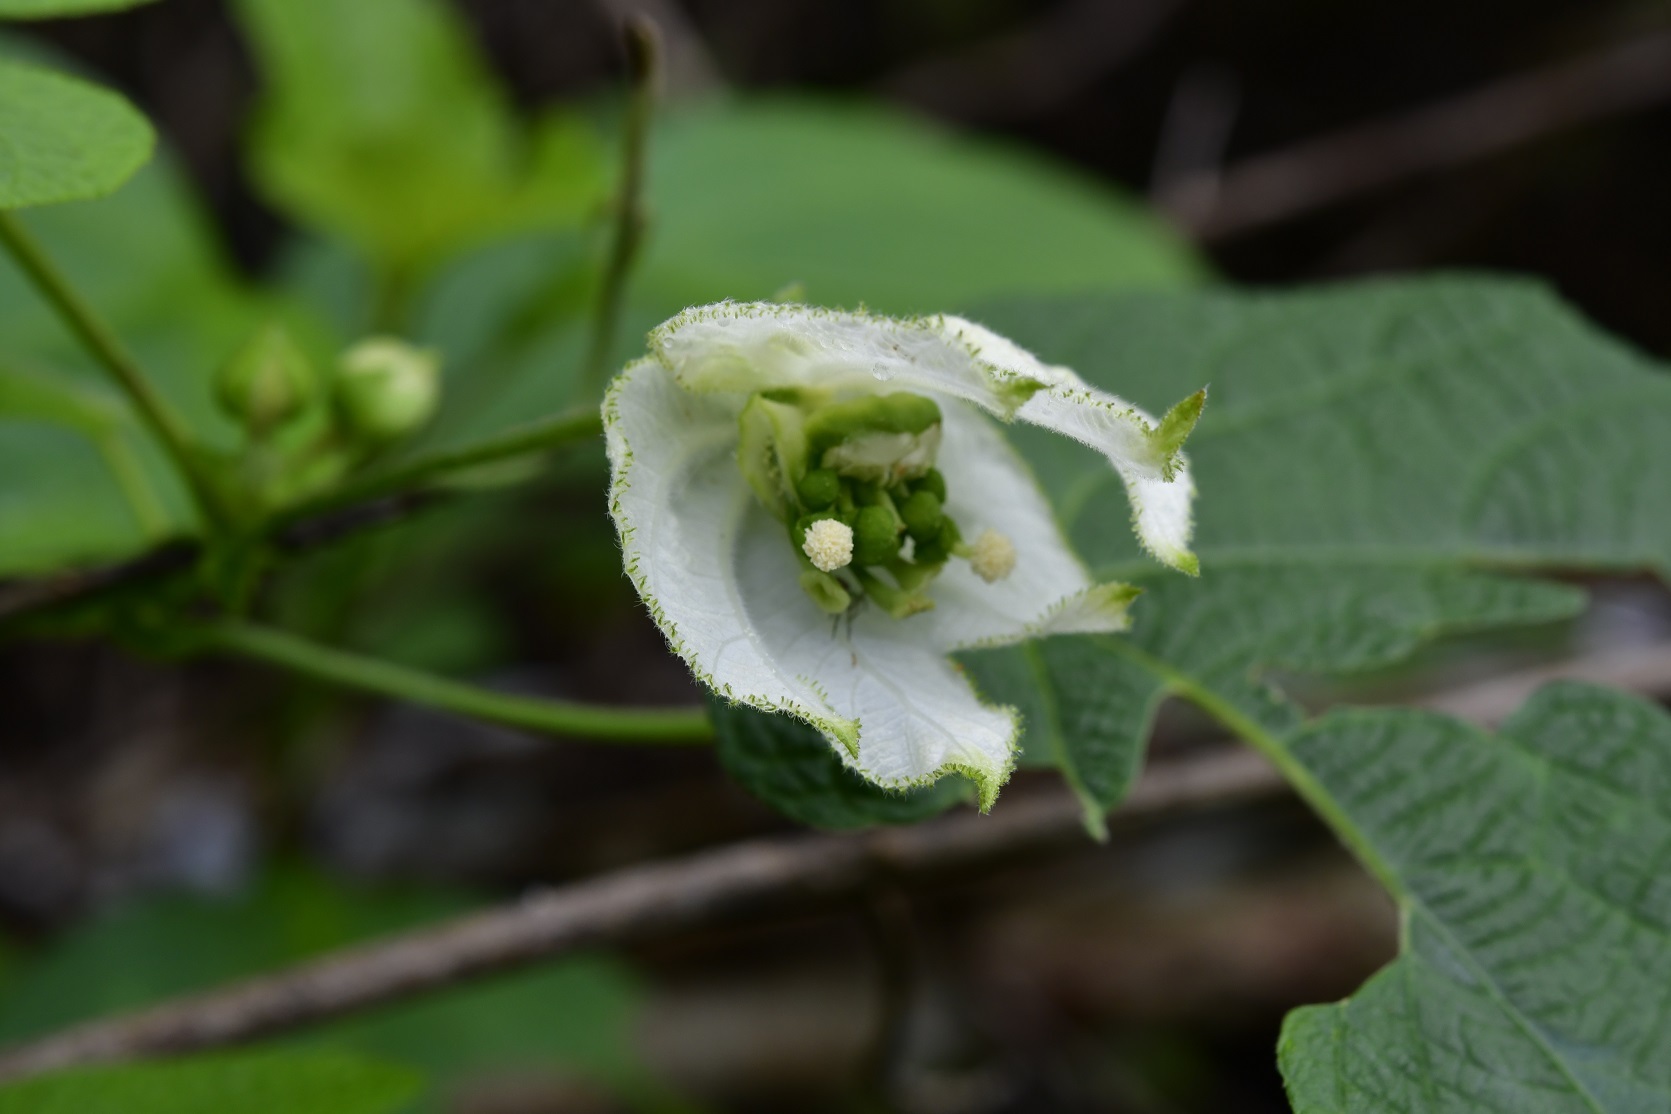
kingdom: Plantae
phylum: Tracheophyta
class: Magnoliopsida
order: Malpighiales
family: Euphorbiaceae
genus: Dalechampia
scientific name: Dalechampia scandens
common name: Spurgecreeper
